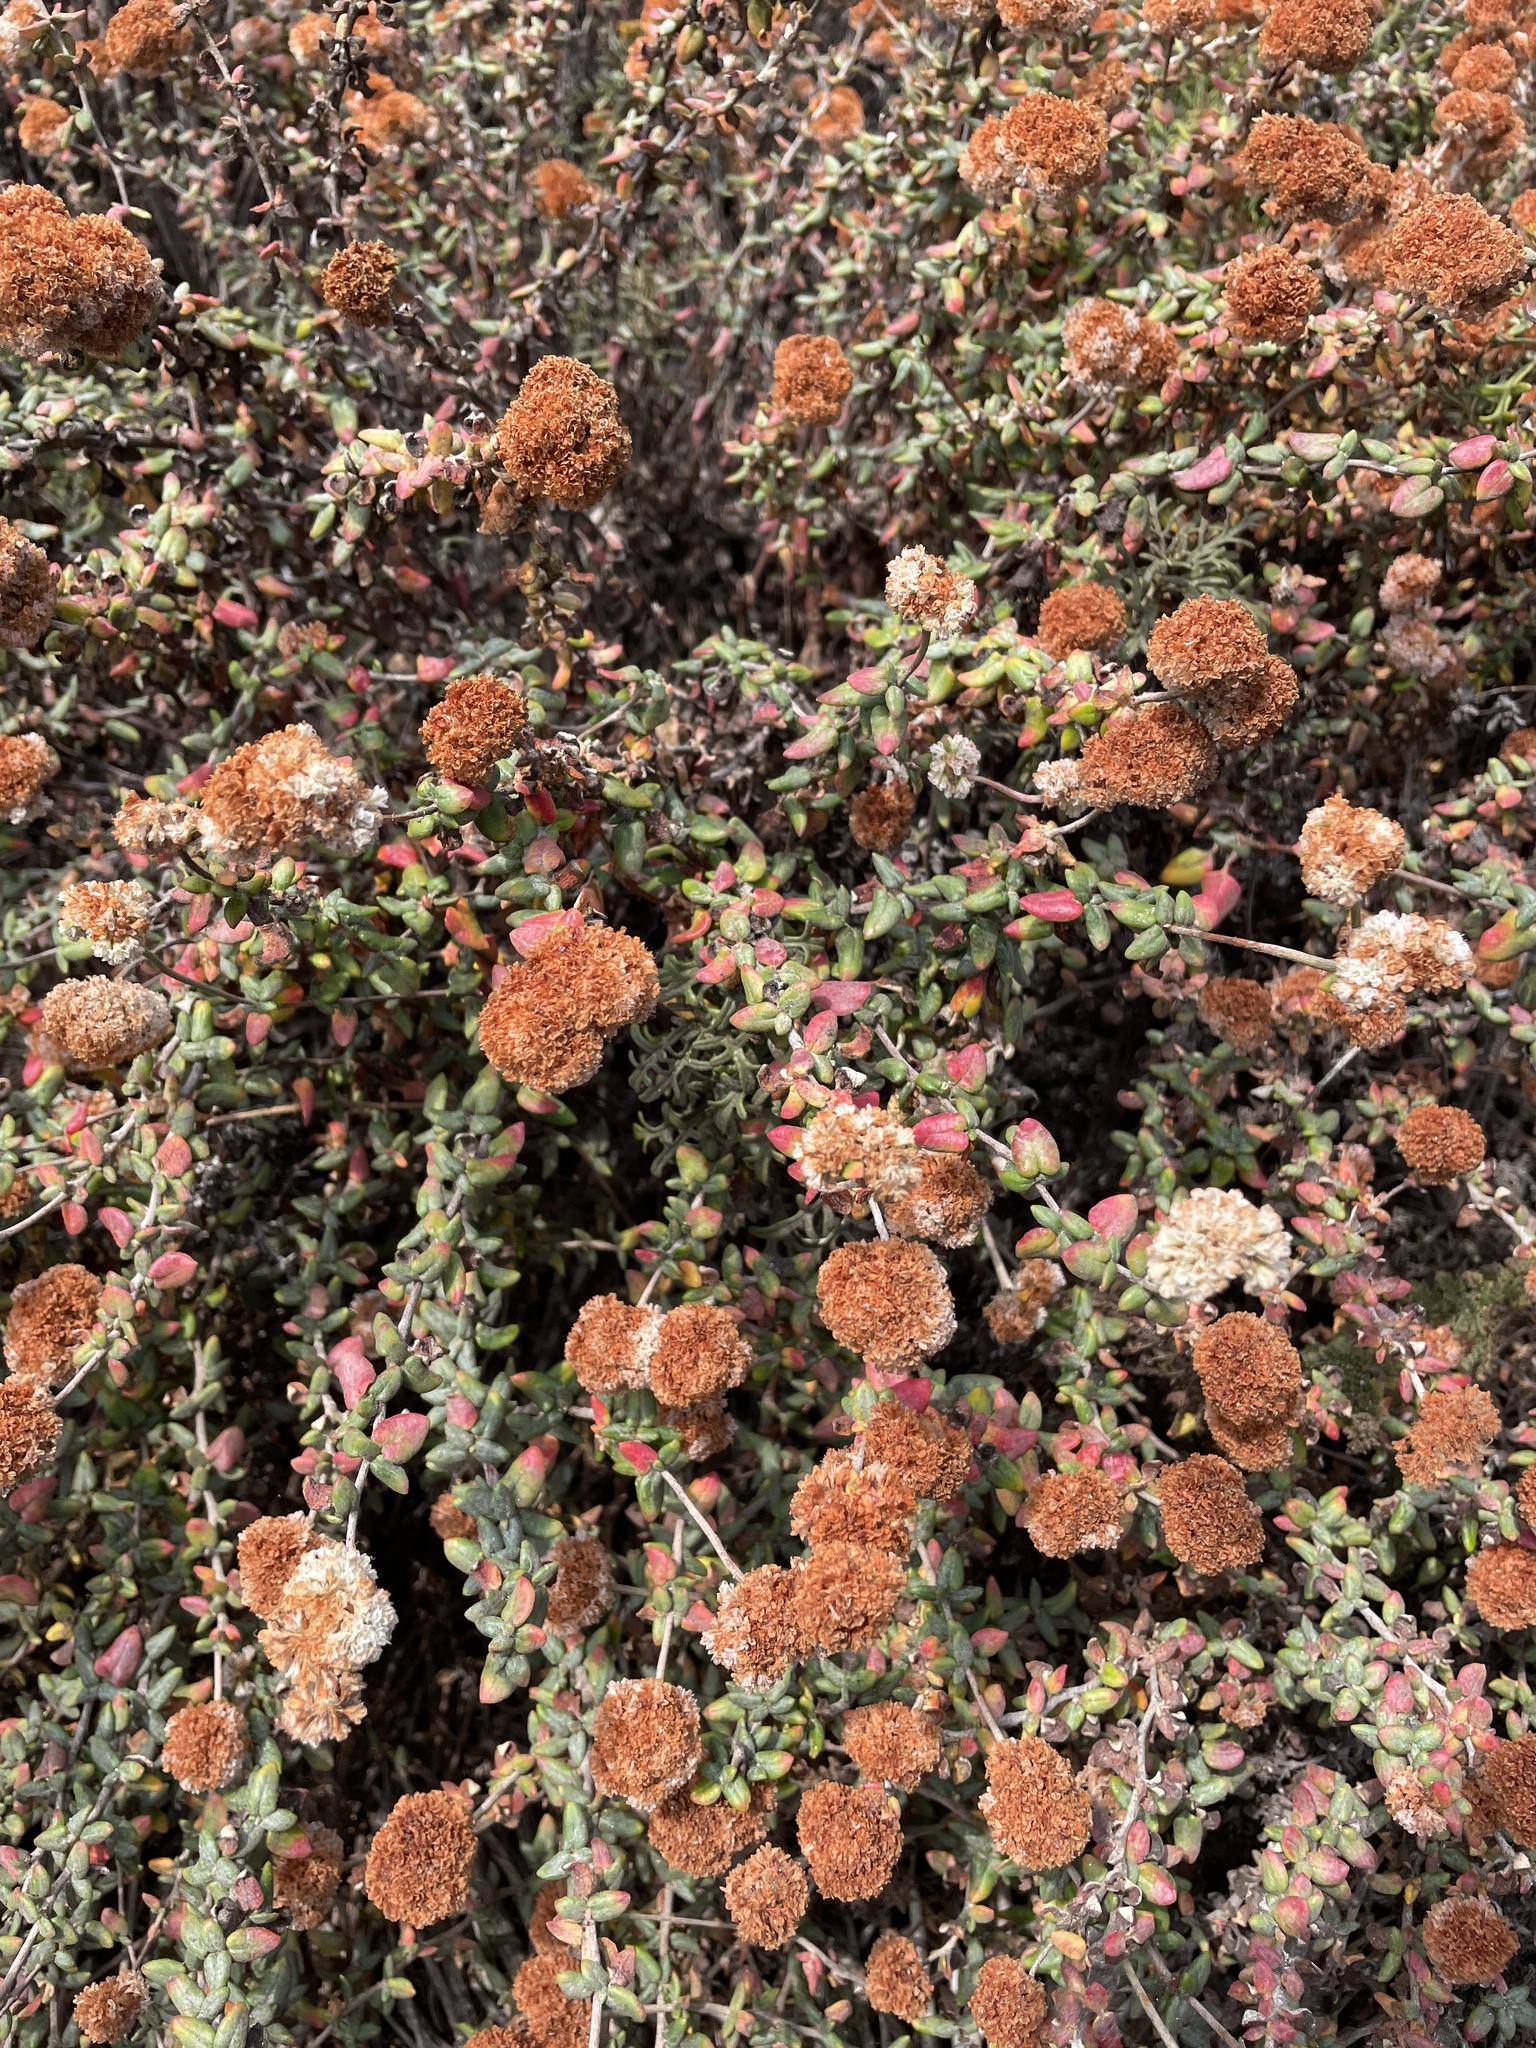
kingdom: Plantae
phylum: Tracheophyta
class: Magnoliopsida
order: Caryophyllales
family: Polygonaceae
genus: Eriogonum
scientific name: Eriogonum parvifolium
